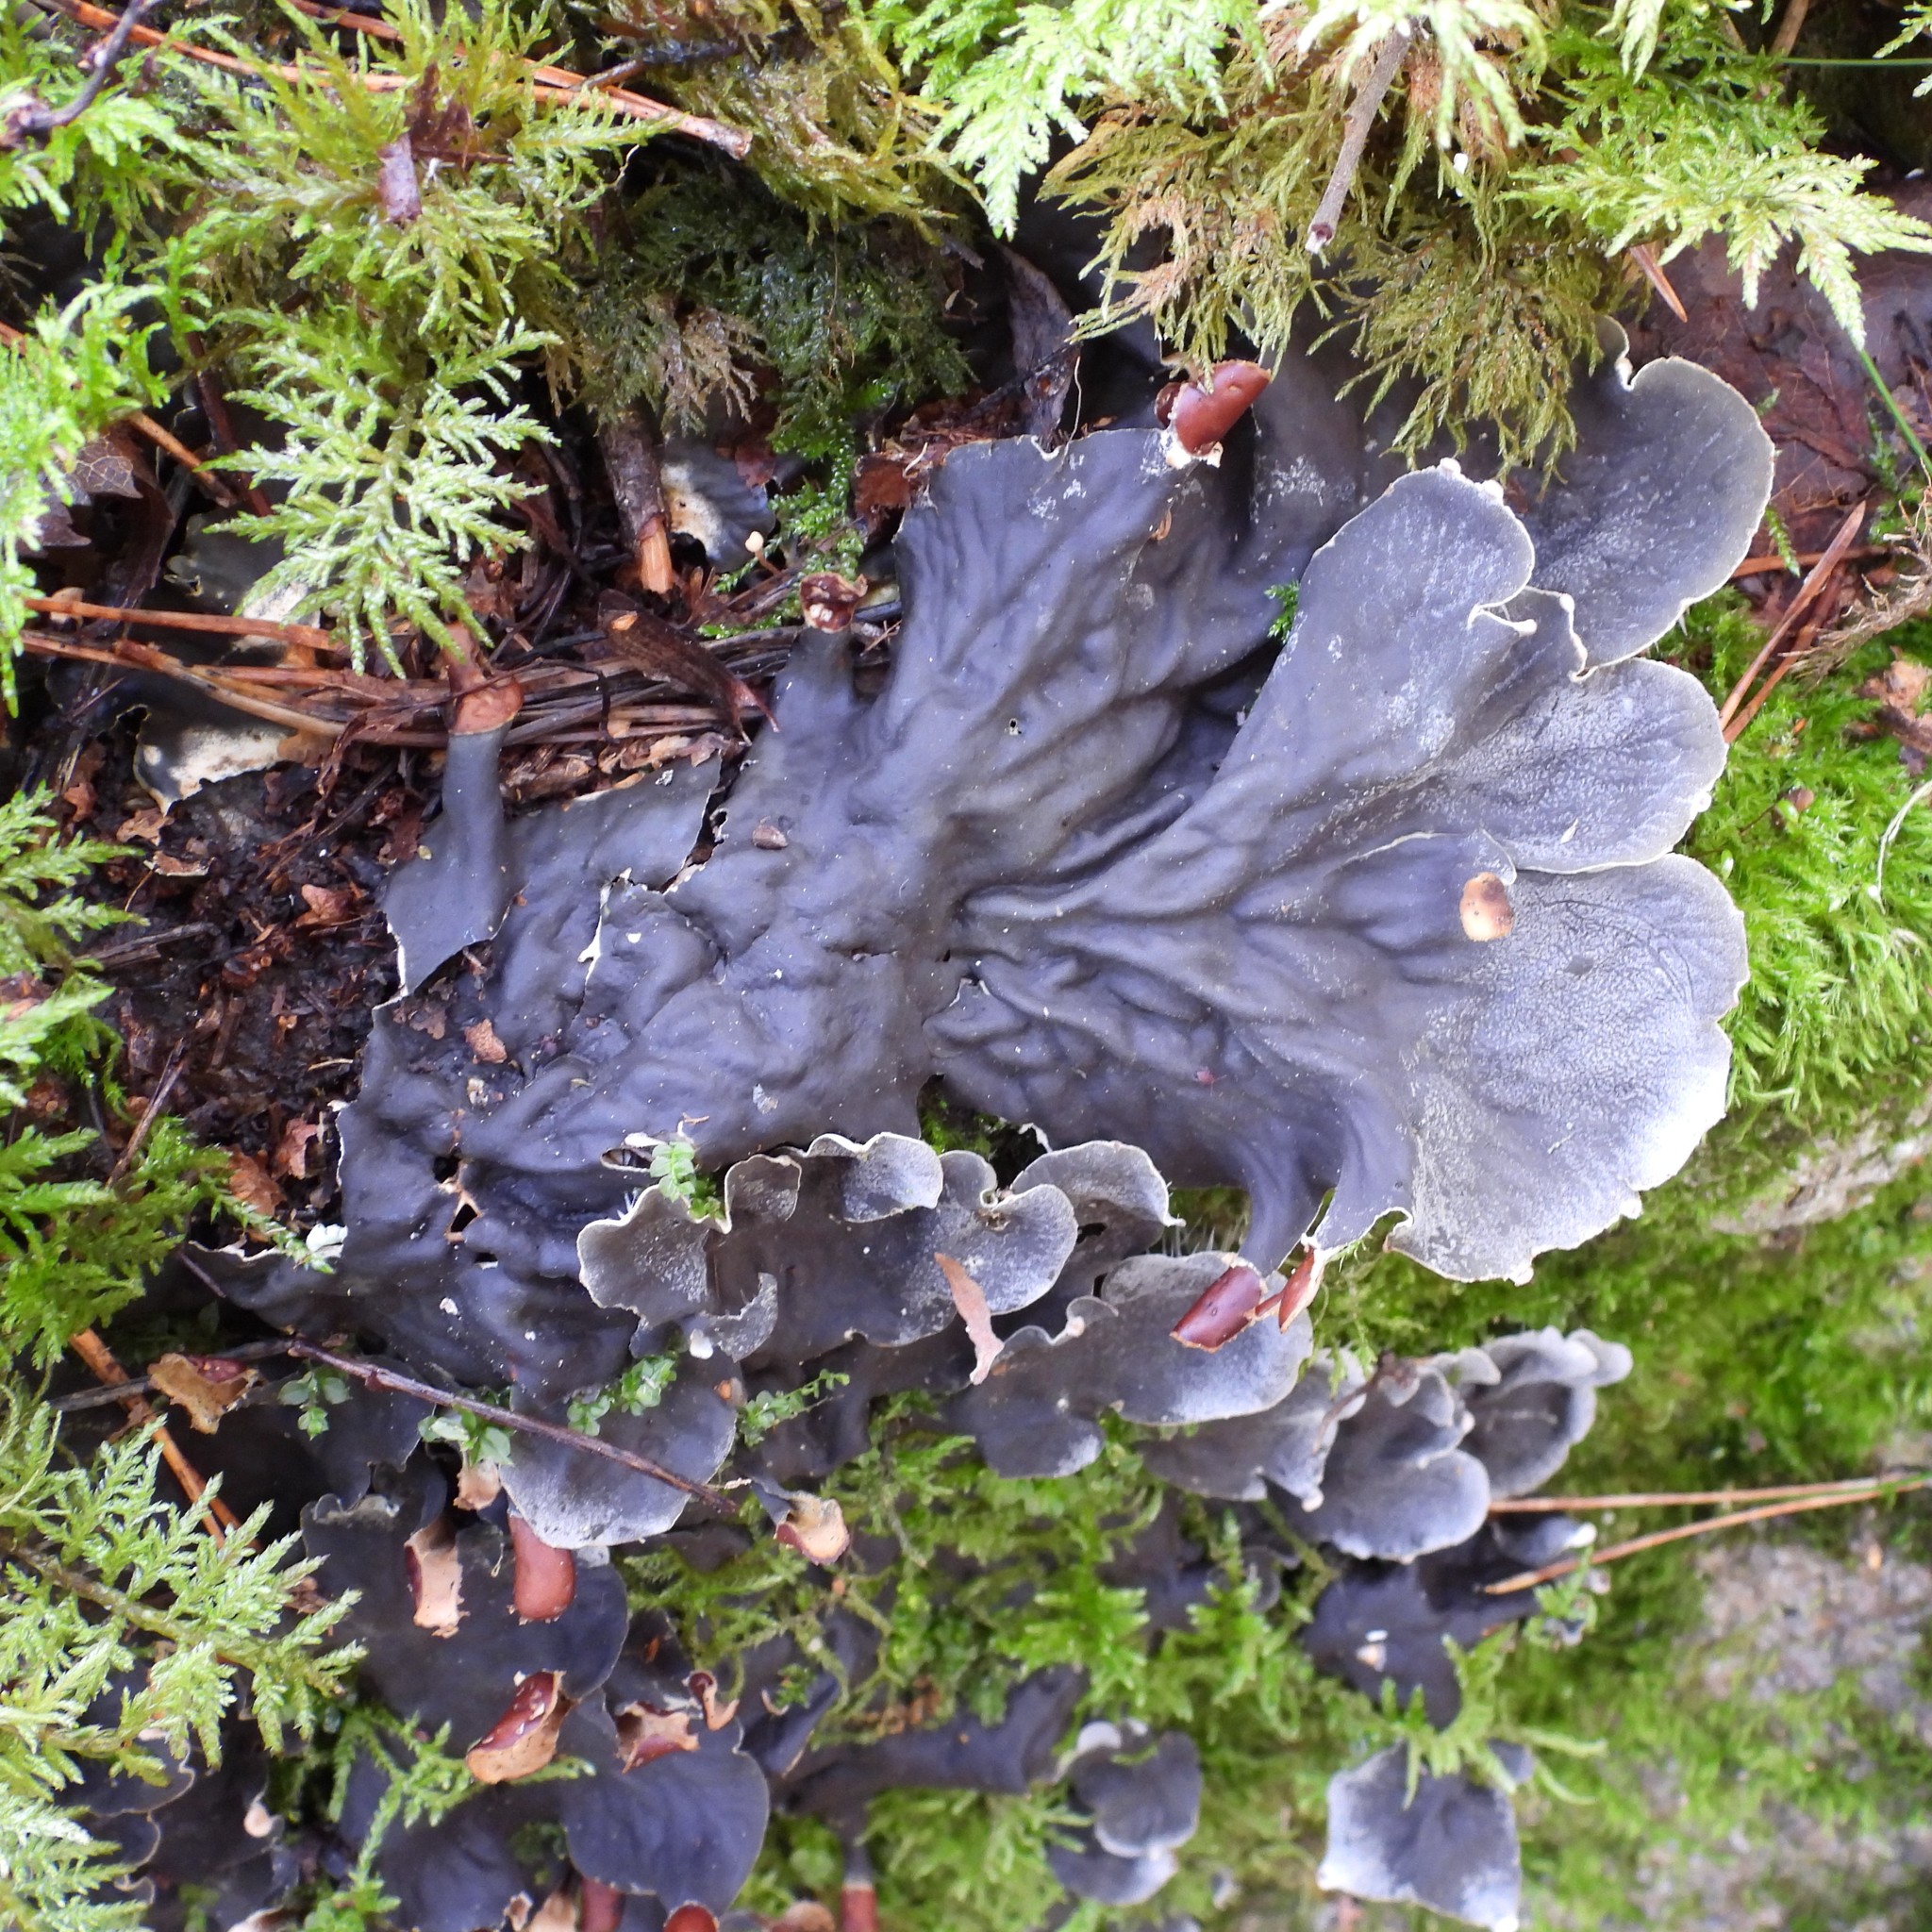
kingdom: Fungi
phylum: Ascomycota
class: Lecanoromycetes
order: Peltigerales
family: Peltigeraceae
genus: Peltigera
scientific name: Peltigera praetextata
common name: Scaly dog-lichen
